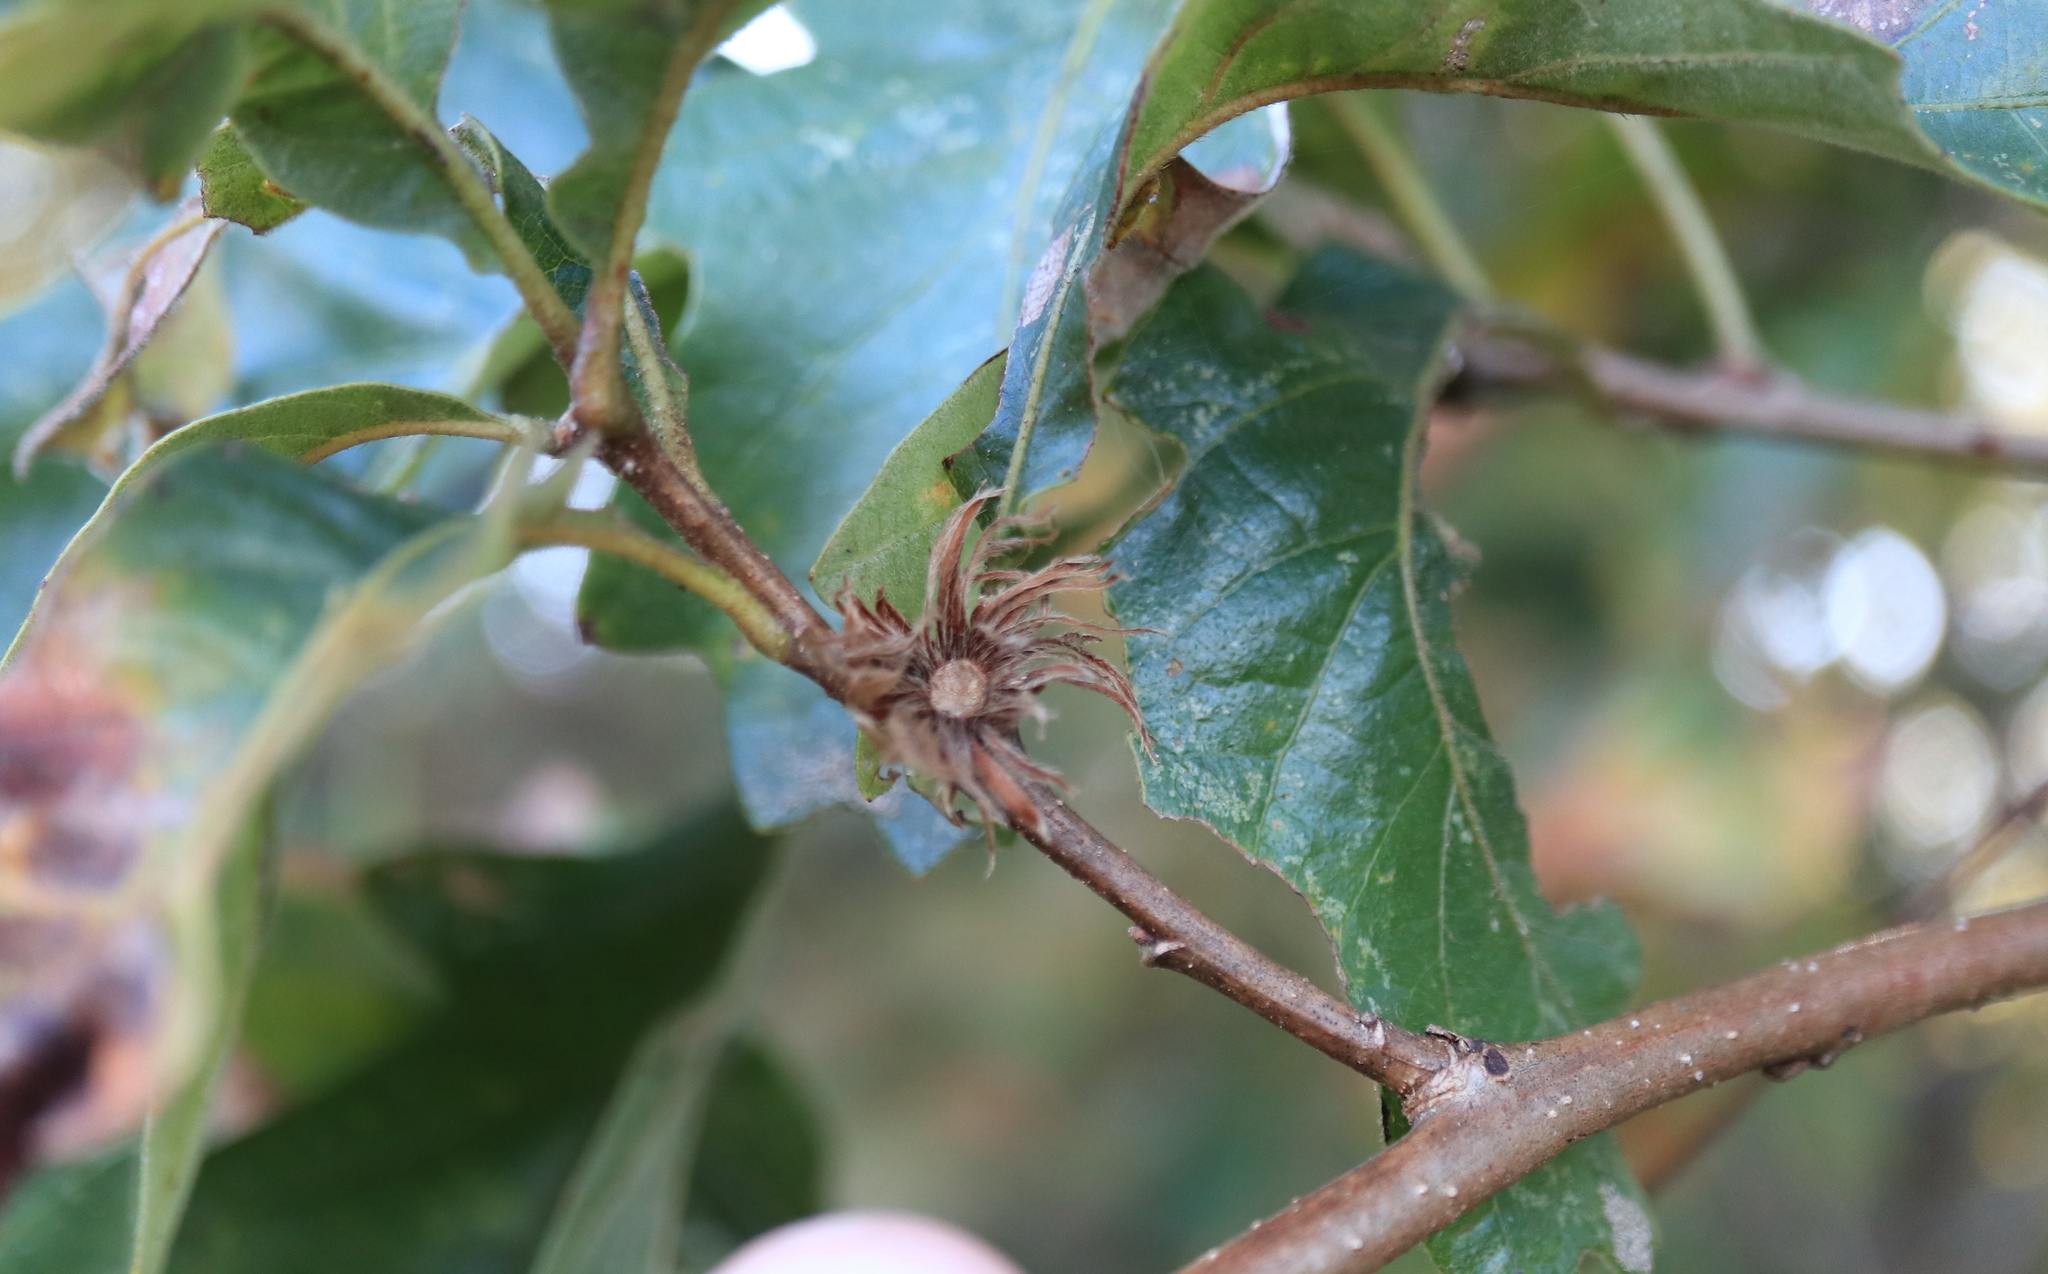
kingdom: Animalia
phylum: Arthropoda
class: Insecta
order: Hymenoptera
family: Cynipidae
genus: Andricus
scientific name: Andricus
